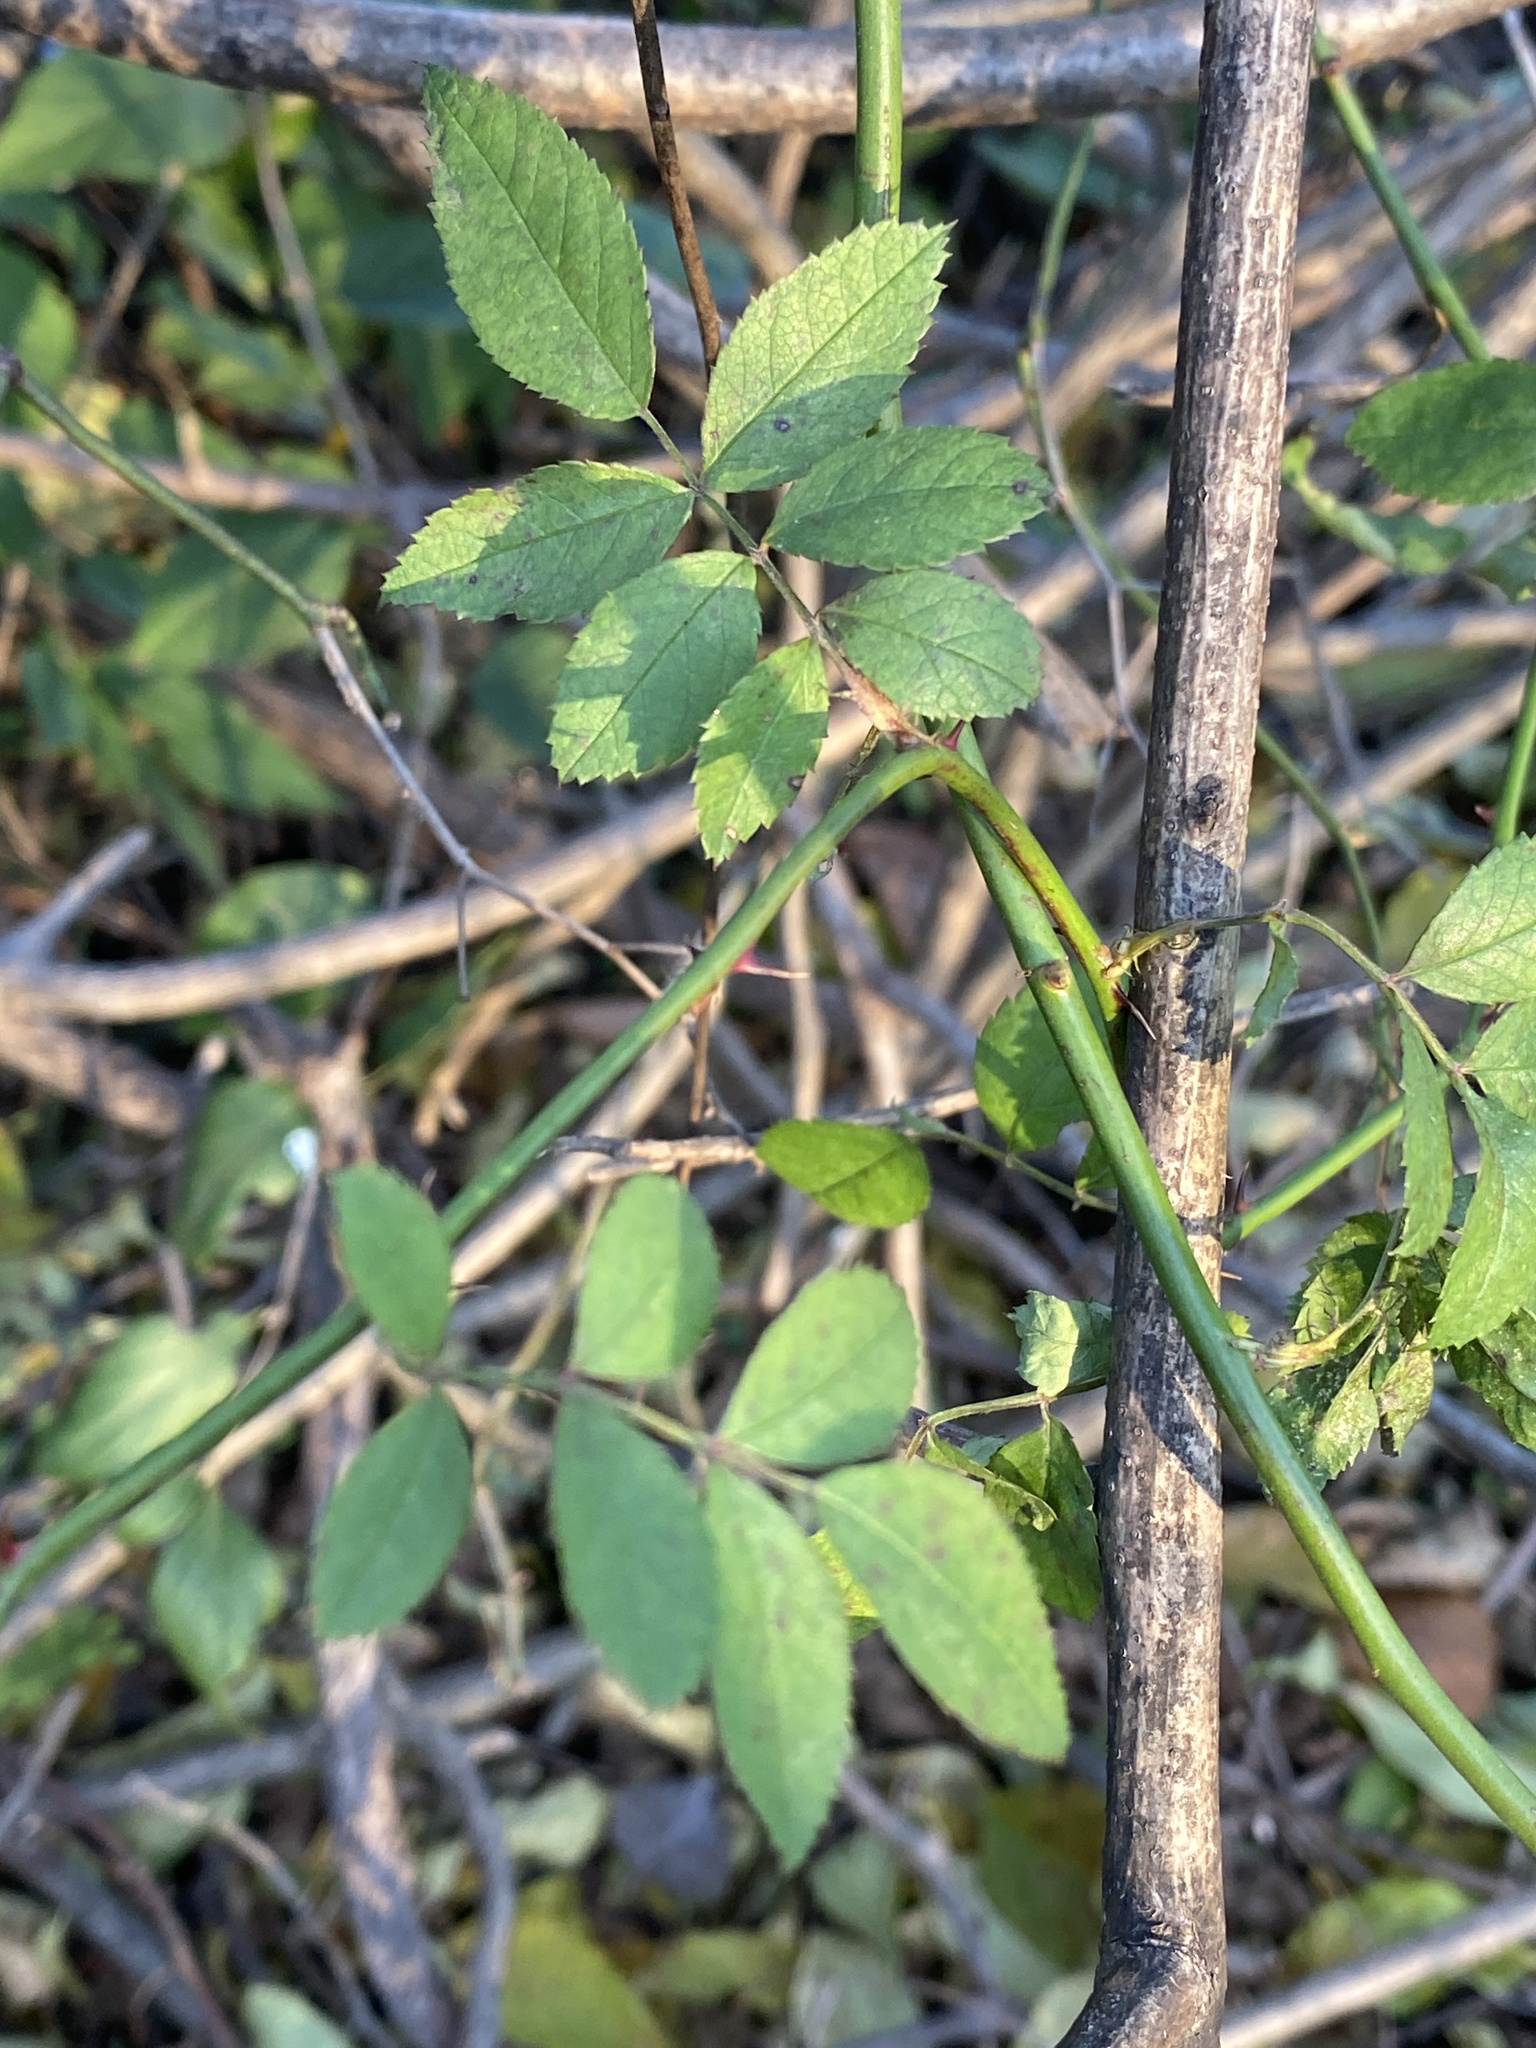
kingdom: Plantae
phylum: Tracheophyta
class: Magnoliopsida
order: Rosales
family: Rosaceae
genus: Rosa
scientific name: Rosa multiflora
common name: Multiflora rose
